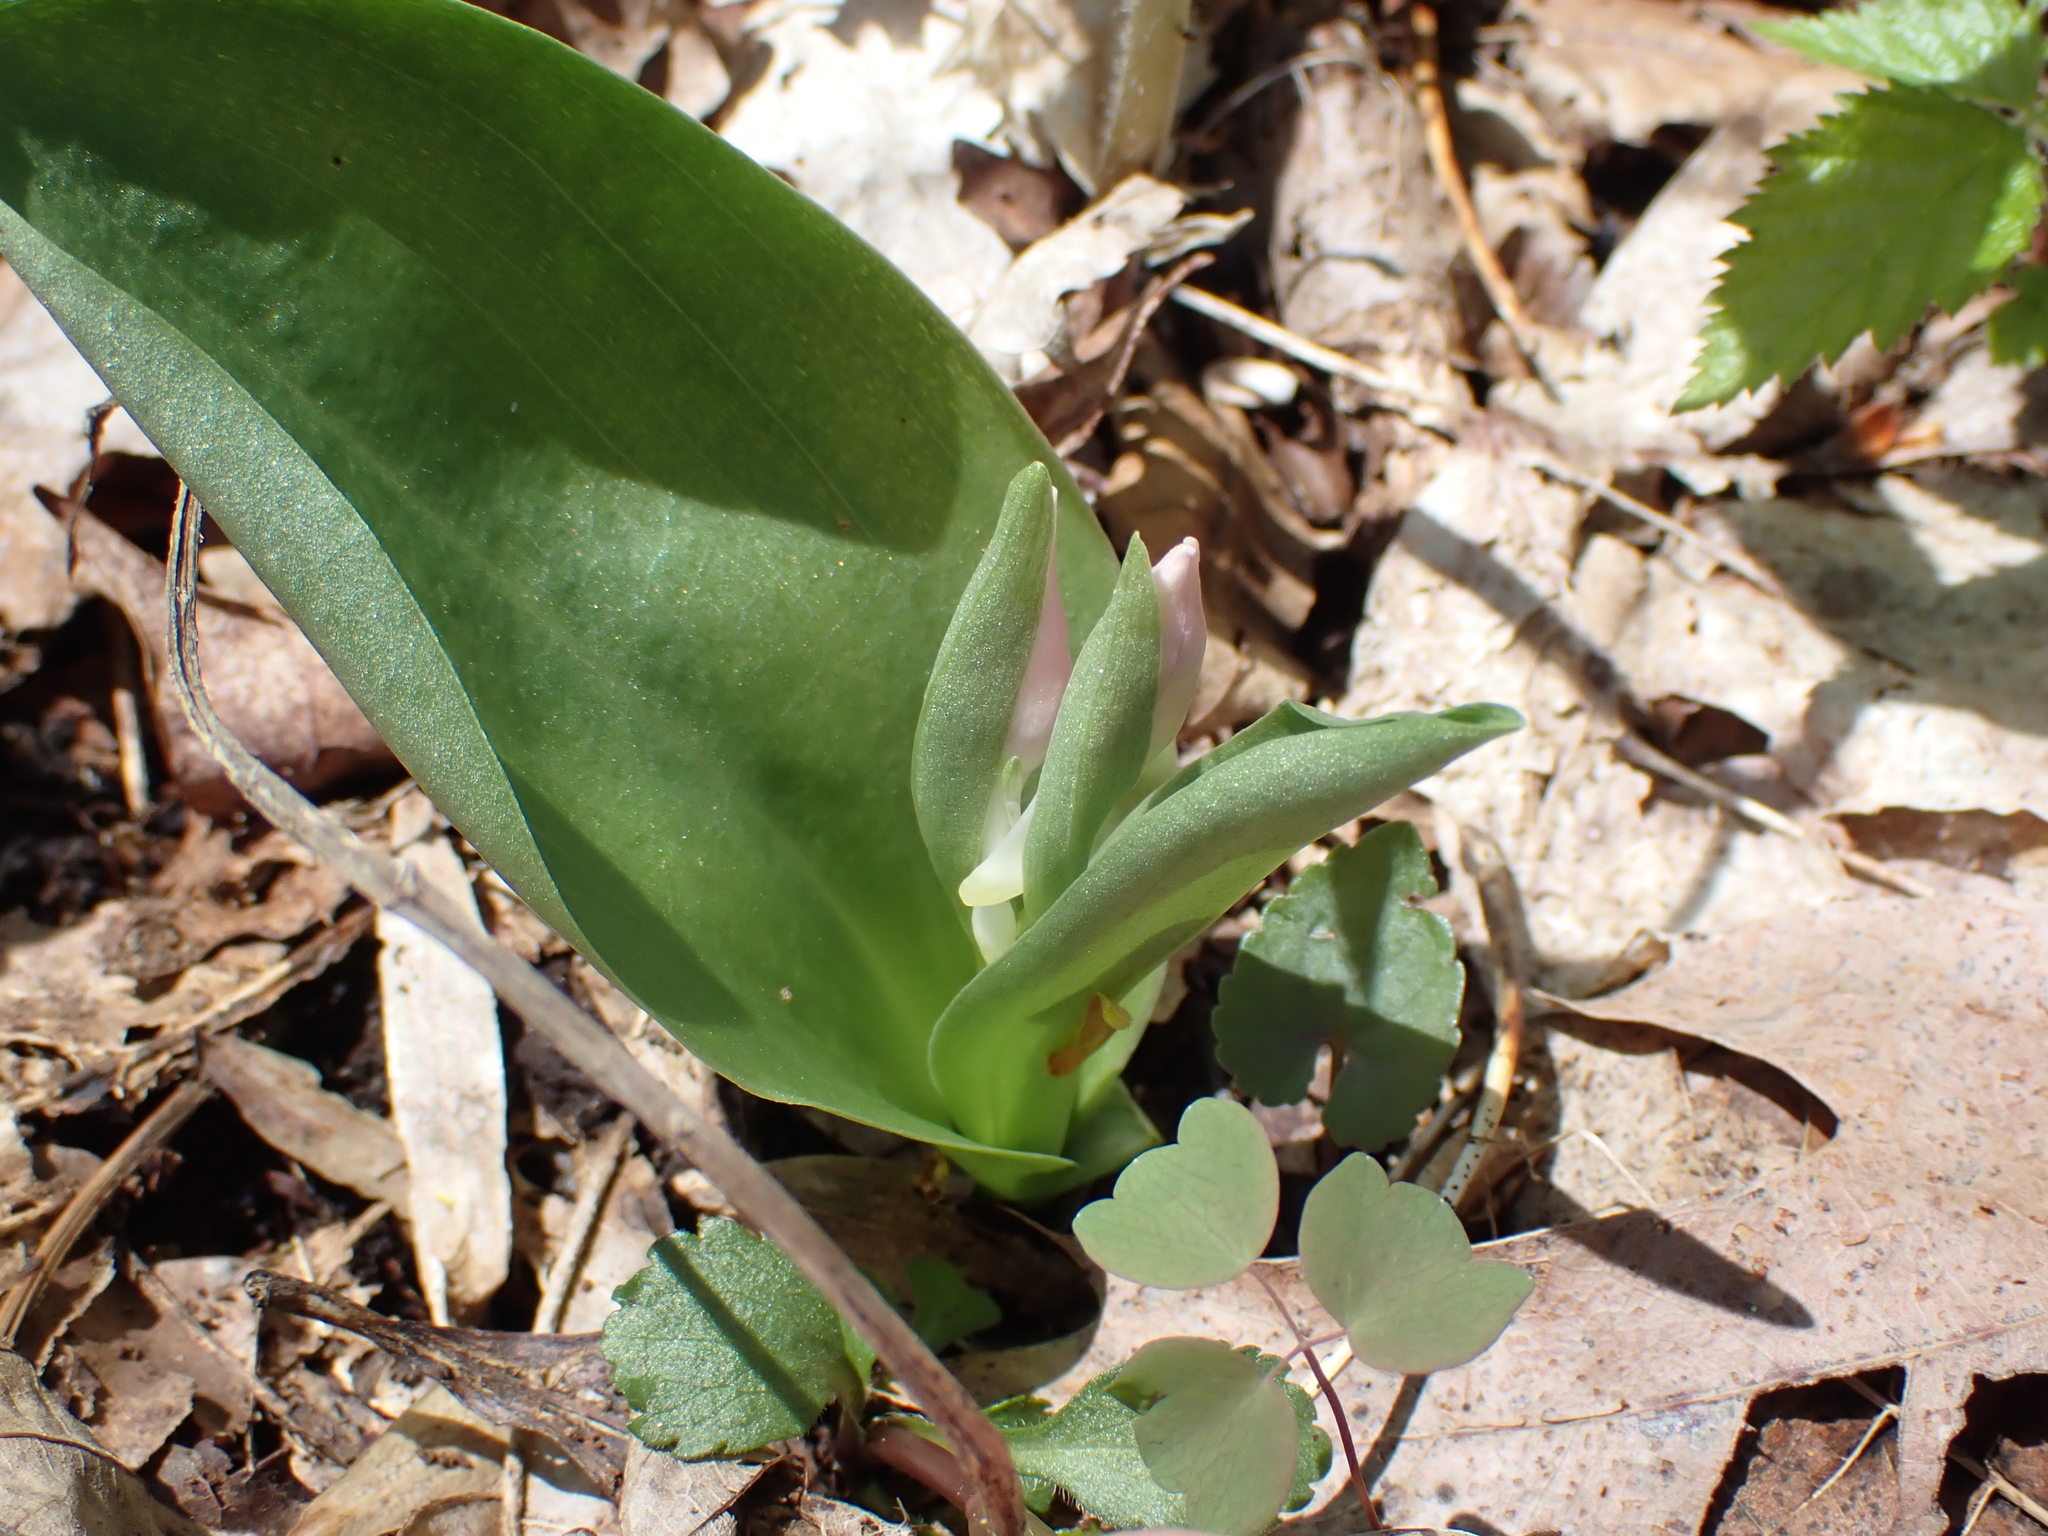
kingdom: Plantae
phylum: Tracheophyta
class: Liliopsida
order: Asparagales
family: Orchidaceae
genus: Galearis
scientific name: Galearis spectabilis
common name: Purple-hooded orchis
